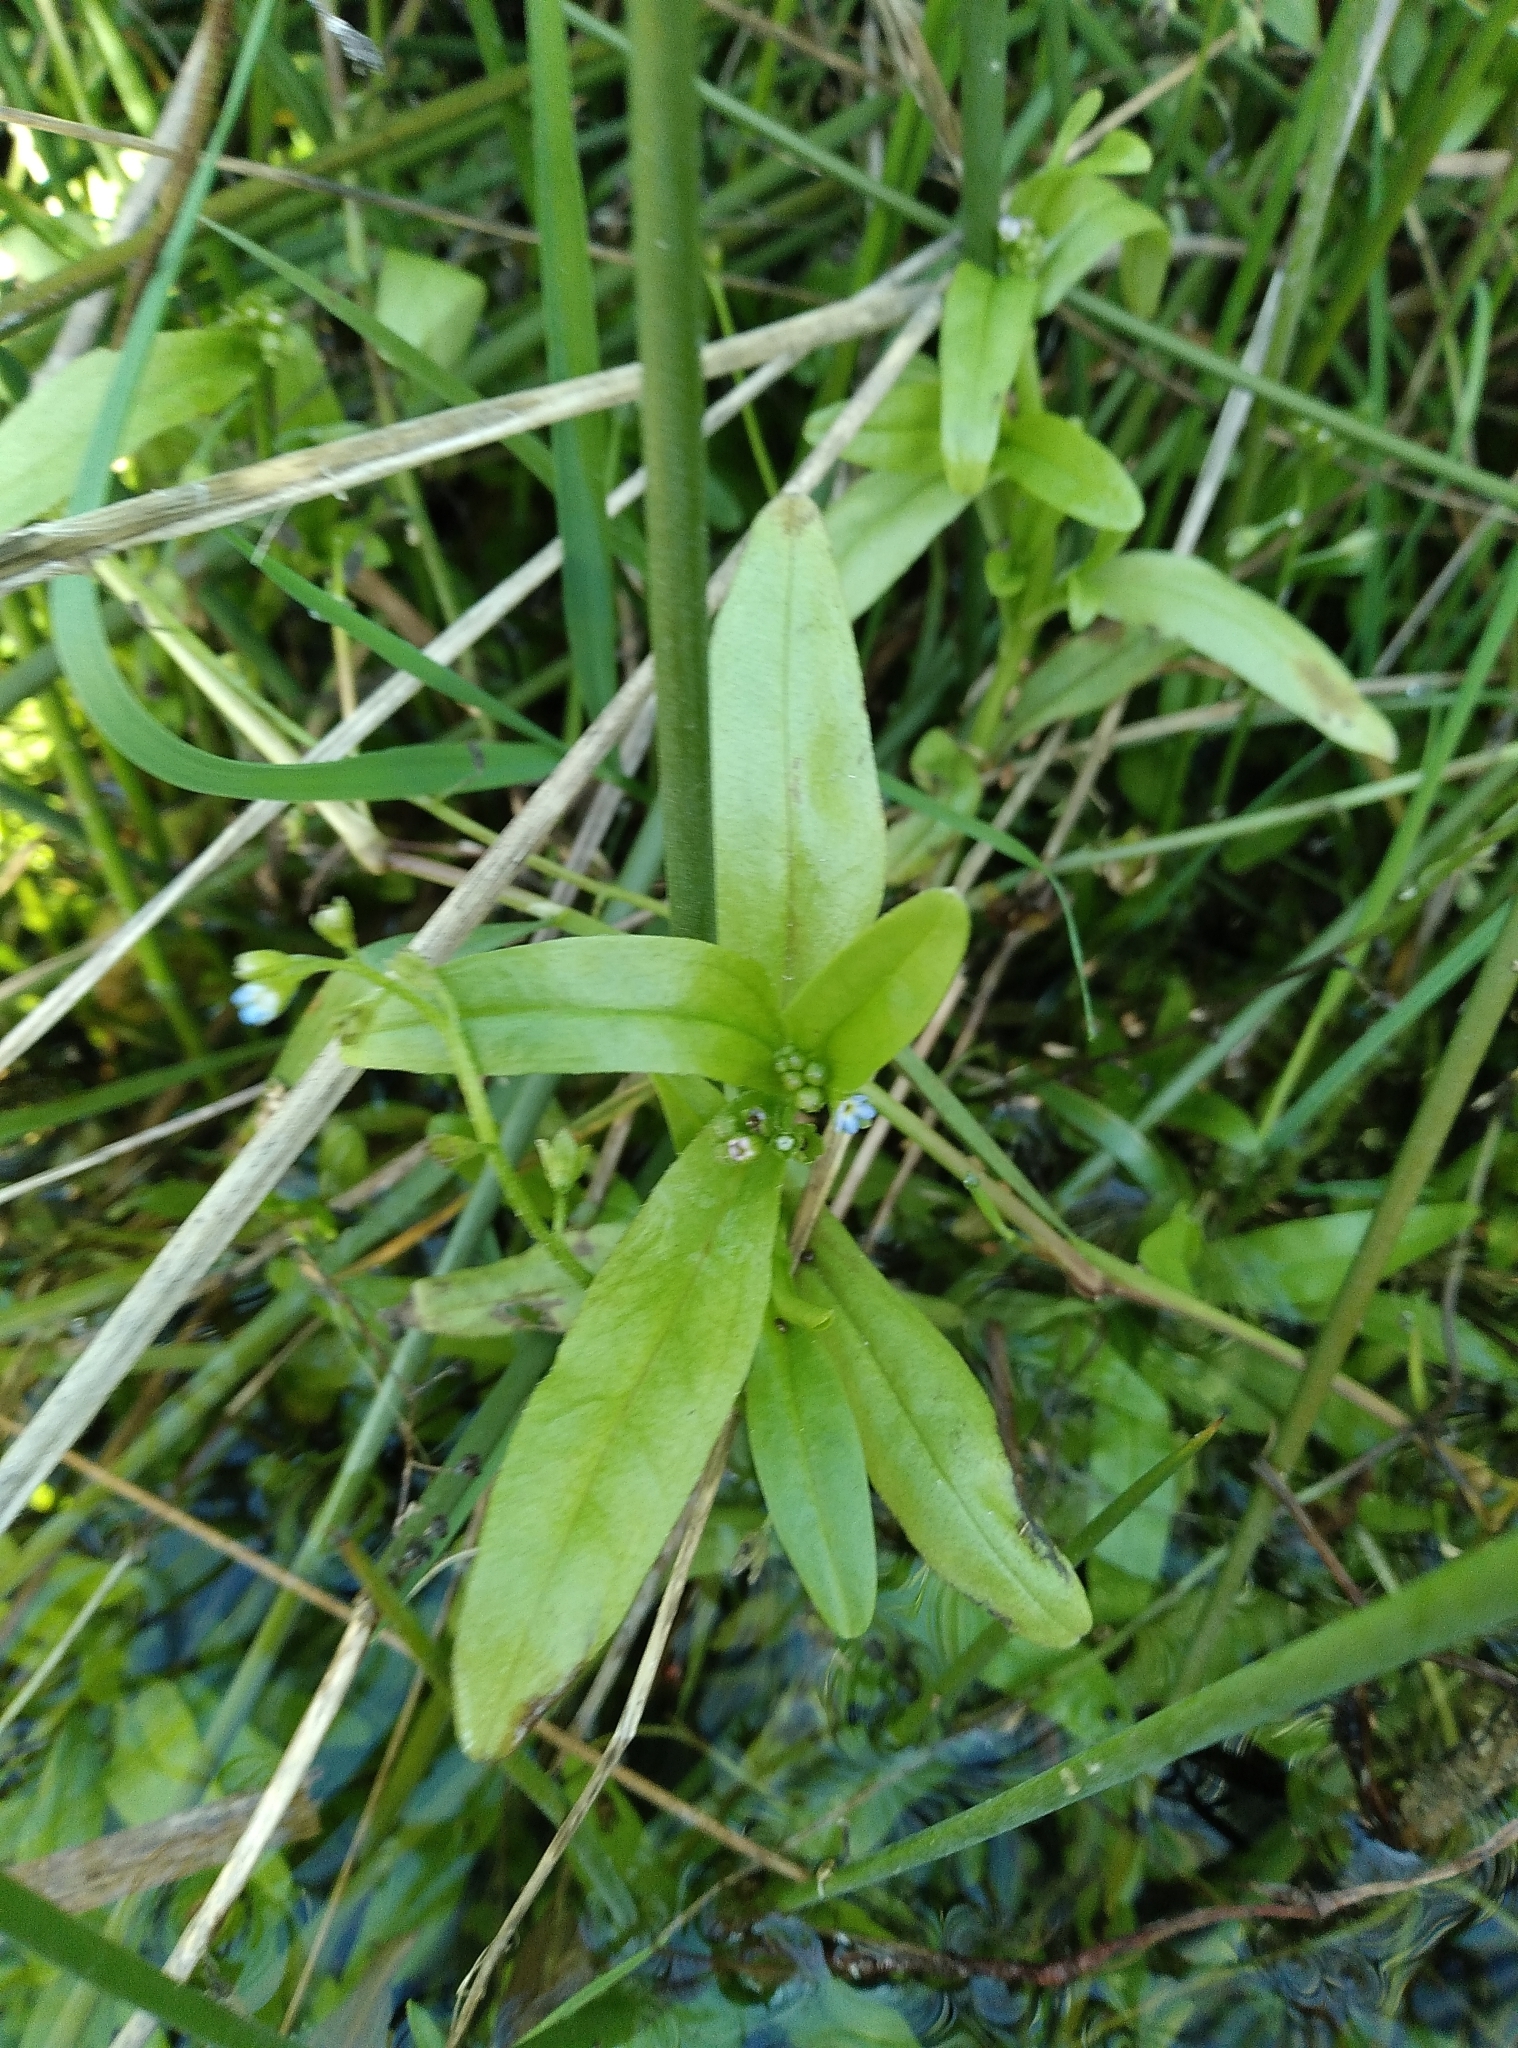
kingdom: Plantae
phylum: Tracheophyta
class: Magnoliopsida
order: Boraginales
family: Boraginaceae
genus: Myosotis
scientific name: Myosotis laxa
